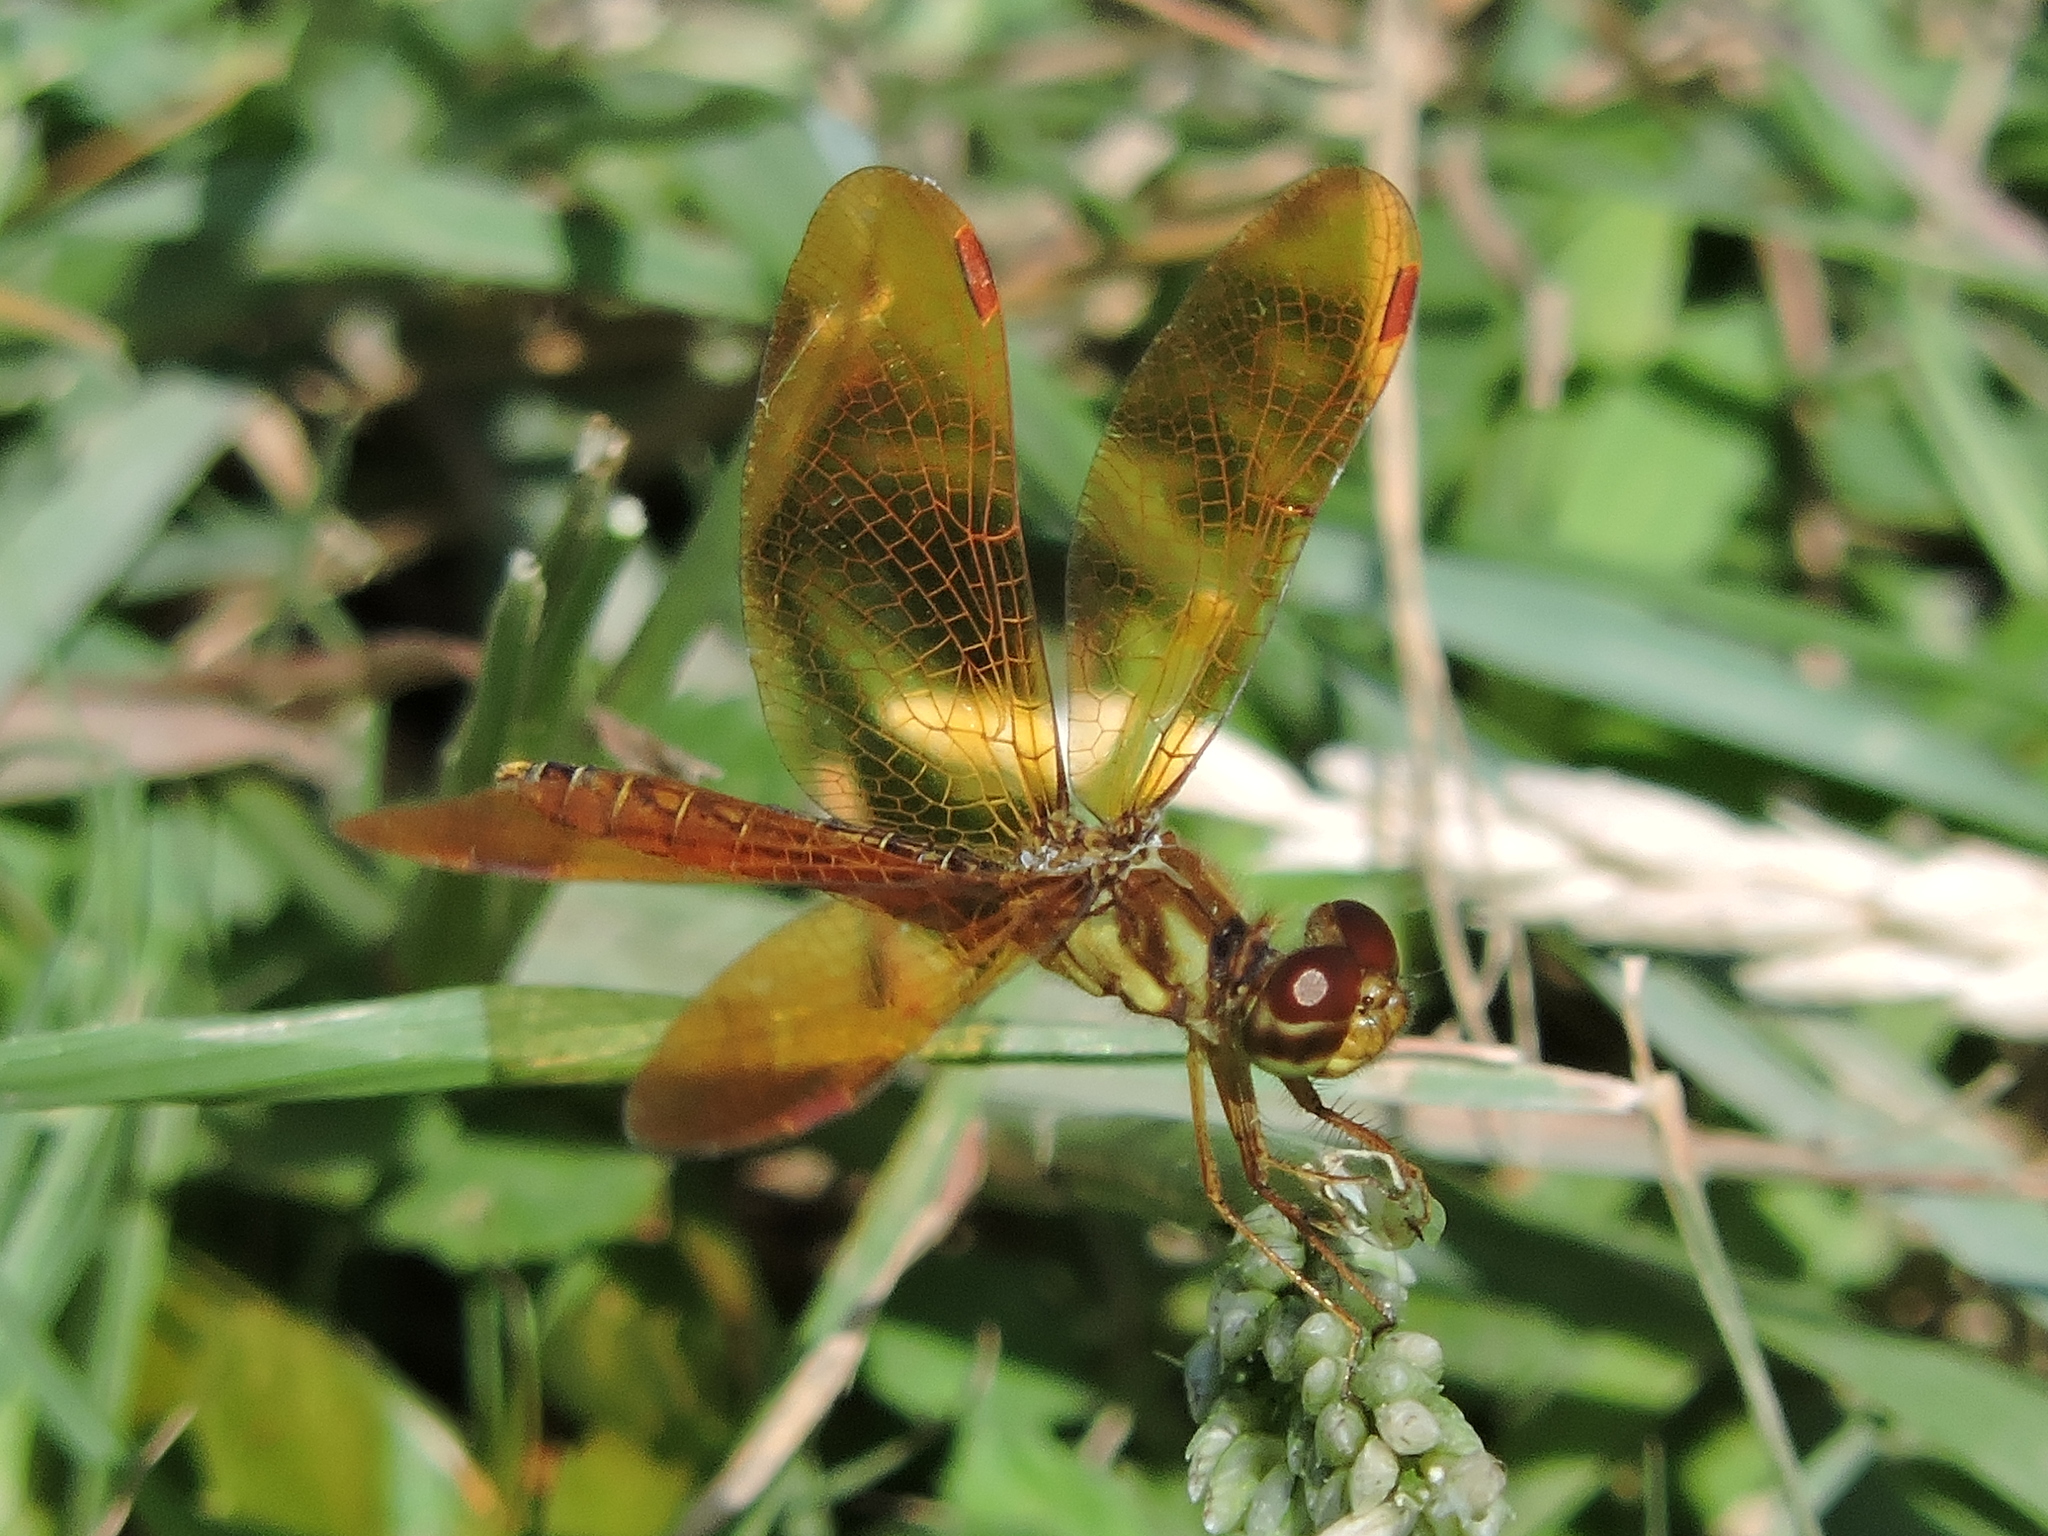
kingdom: Animalia
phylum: Arthropoda
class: Insecta
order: Odonata
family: Libellulidae
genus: Perithemis
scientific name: Perithemis tenera
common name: Eastern amberwing
